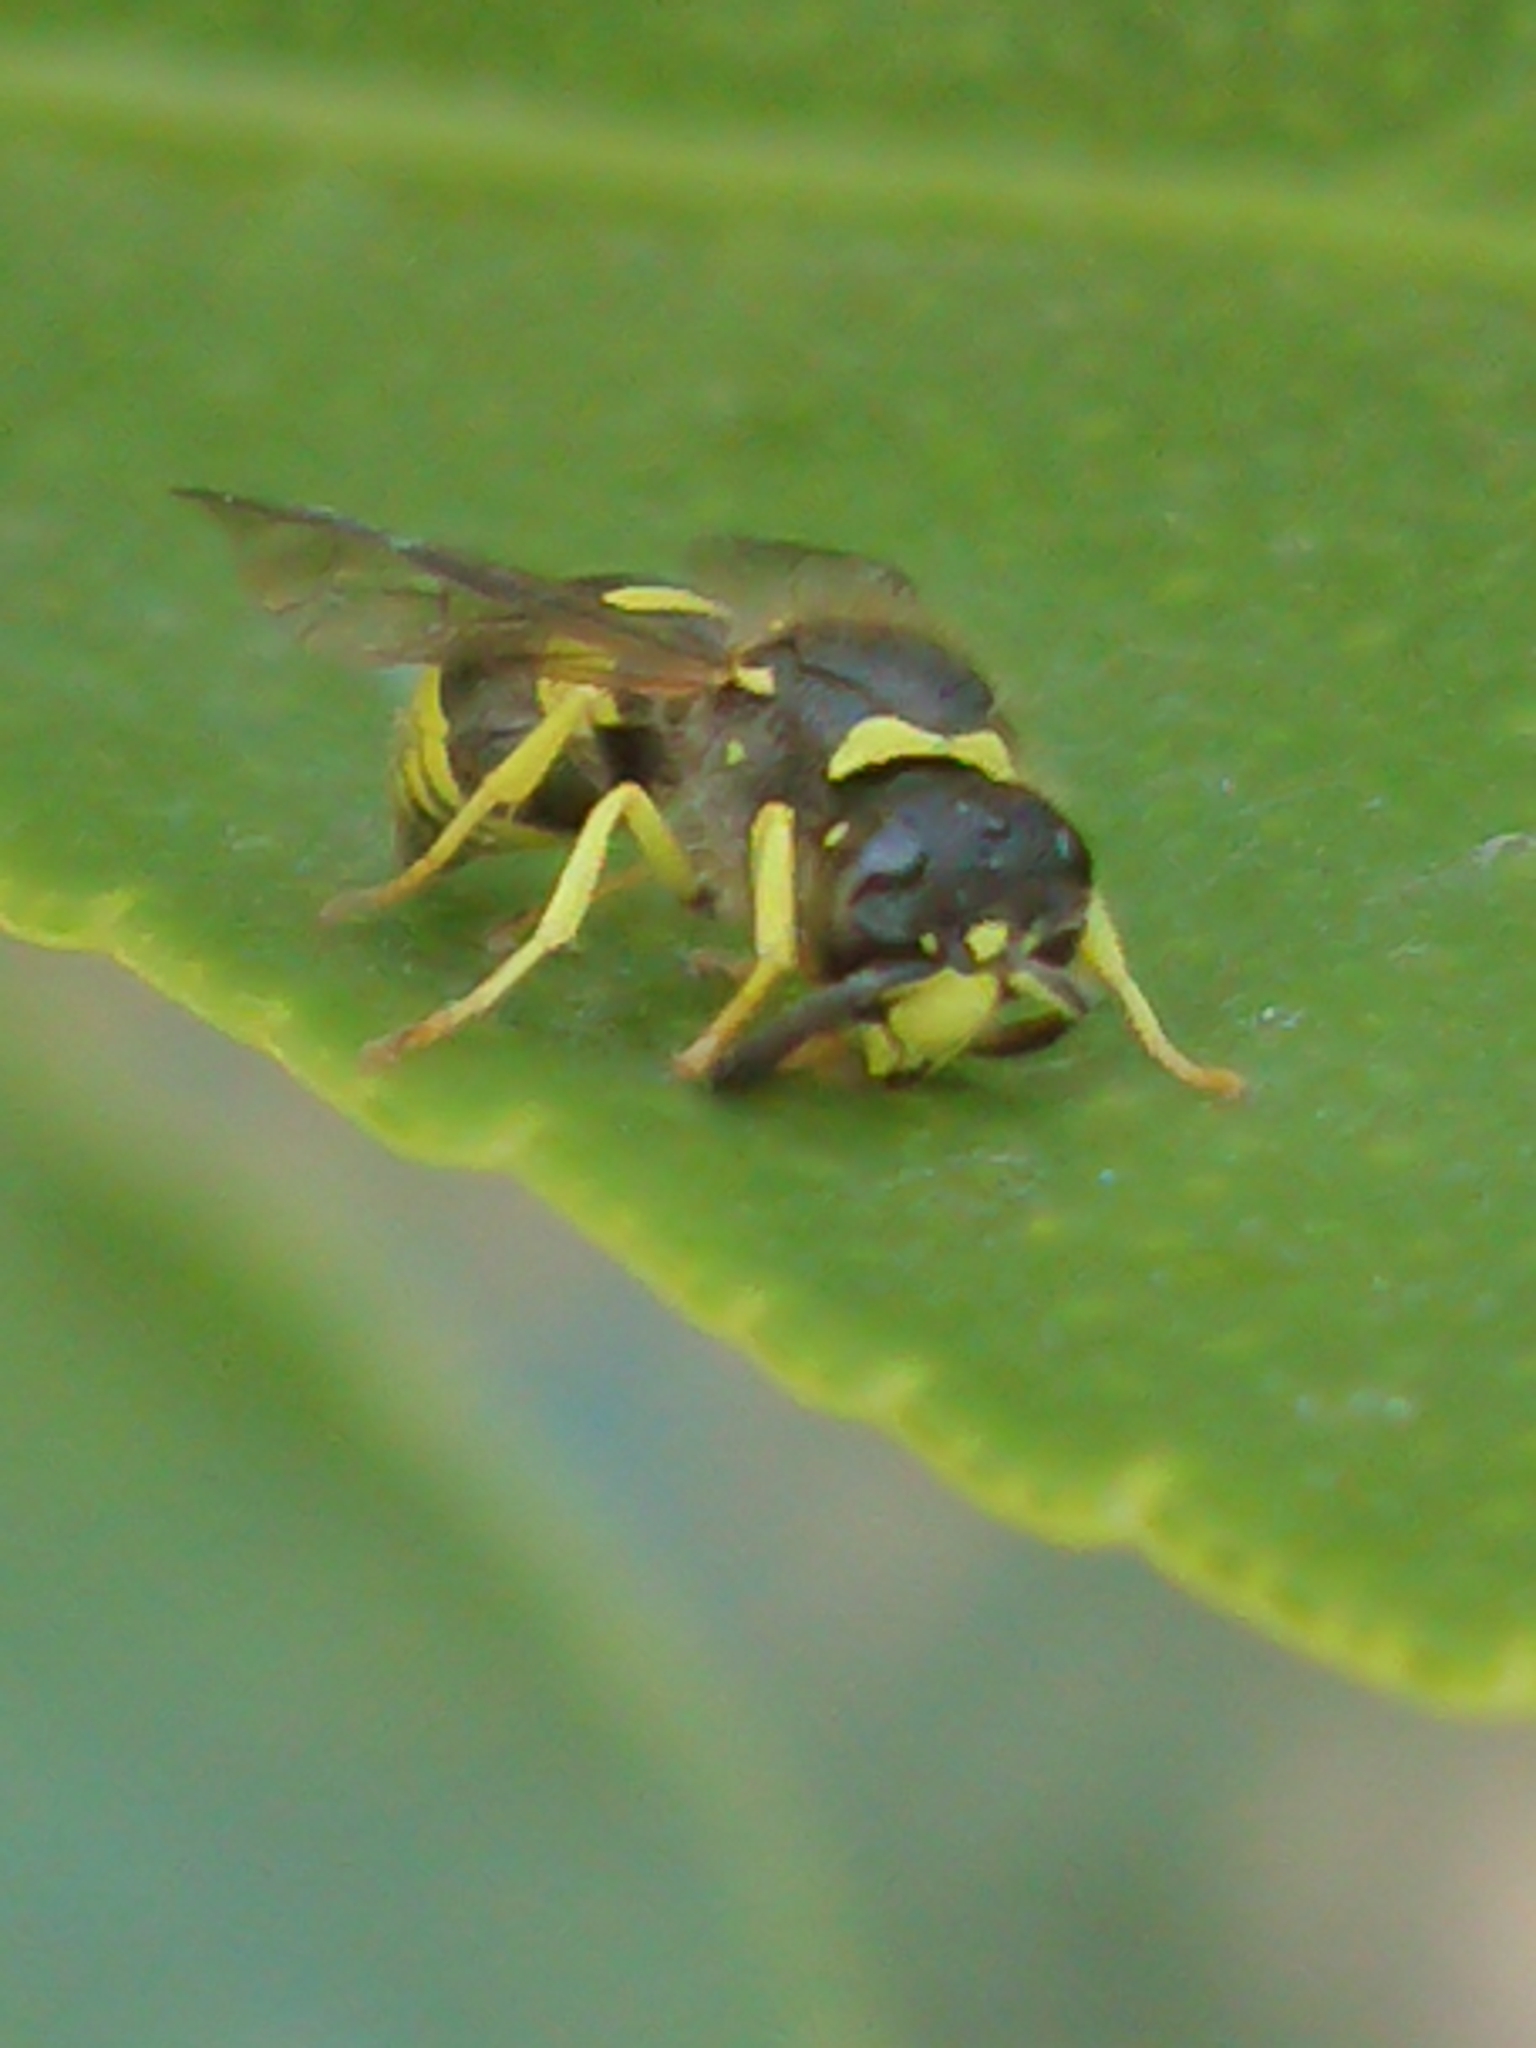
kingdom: Animalia
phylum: Arthropoda
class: Insecta
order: Hymenoptera
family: Vespidae
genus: Ancistrocerus
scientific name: Ancistrocerus gazella
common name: European tube wasp
